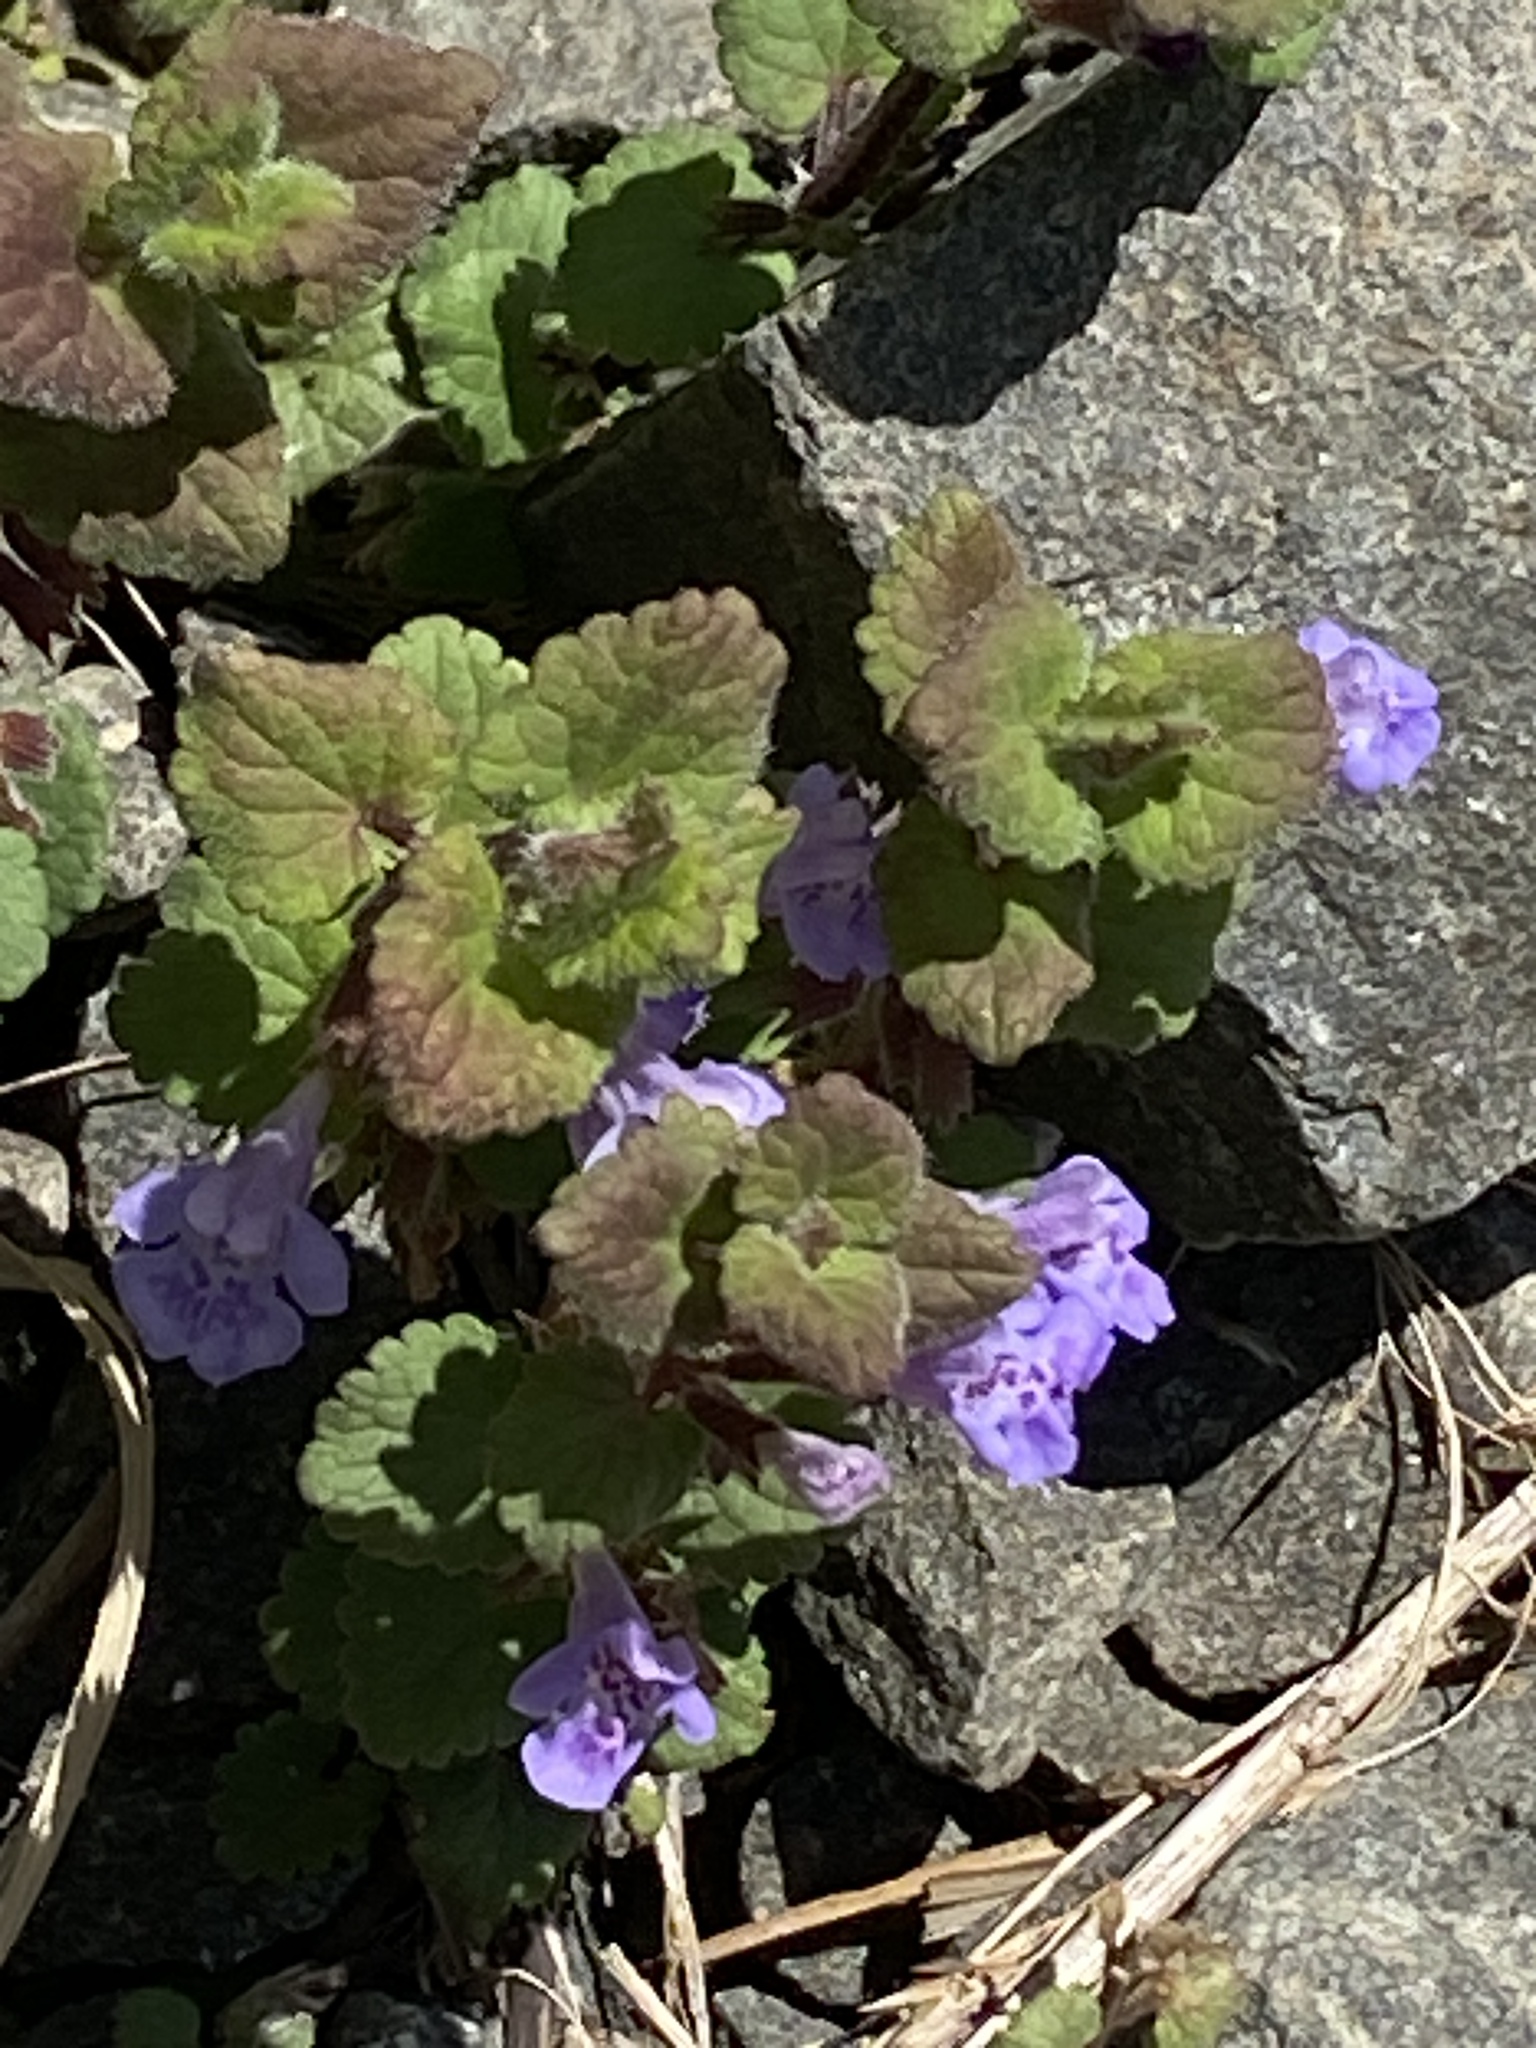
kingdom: Plantae
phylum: Tracheophyta
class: Magnoliopsida
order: Lamiales
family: Lamiaceae
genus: Glechoma
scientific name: Glechoma hederacea
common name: Ground ivy
